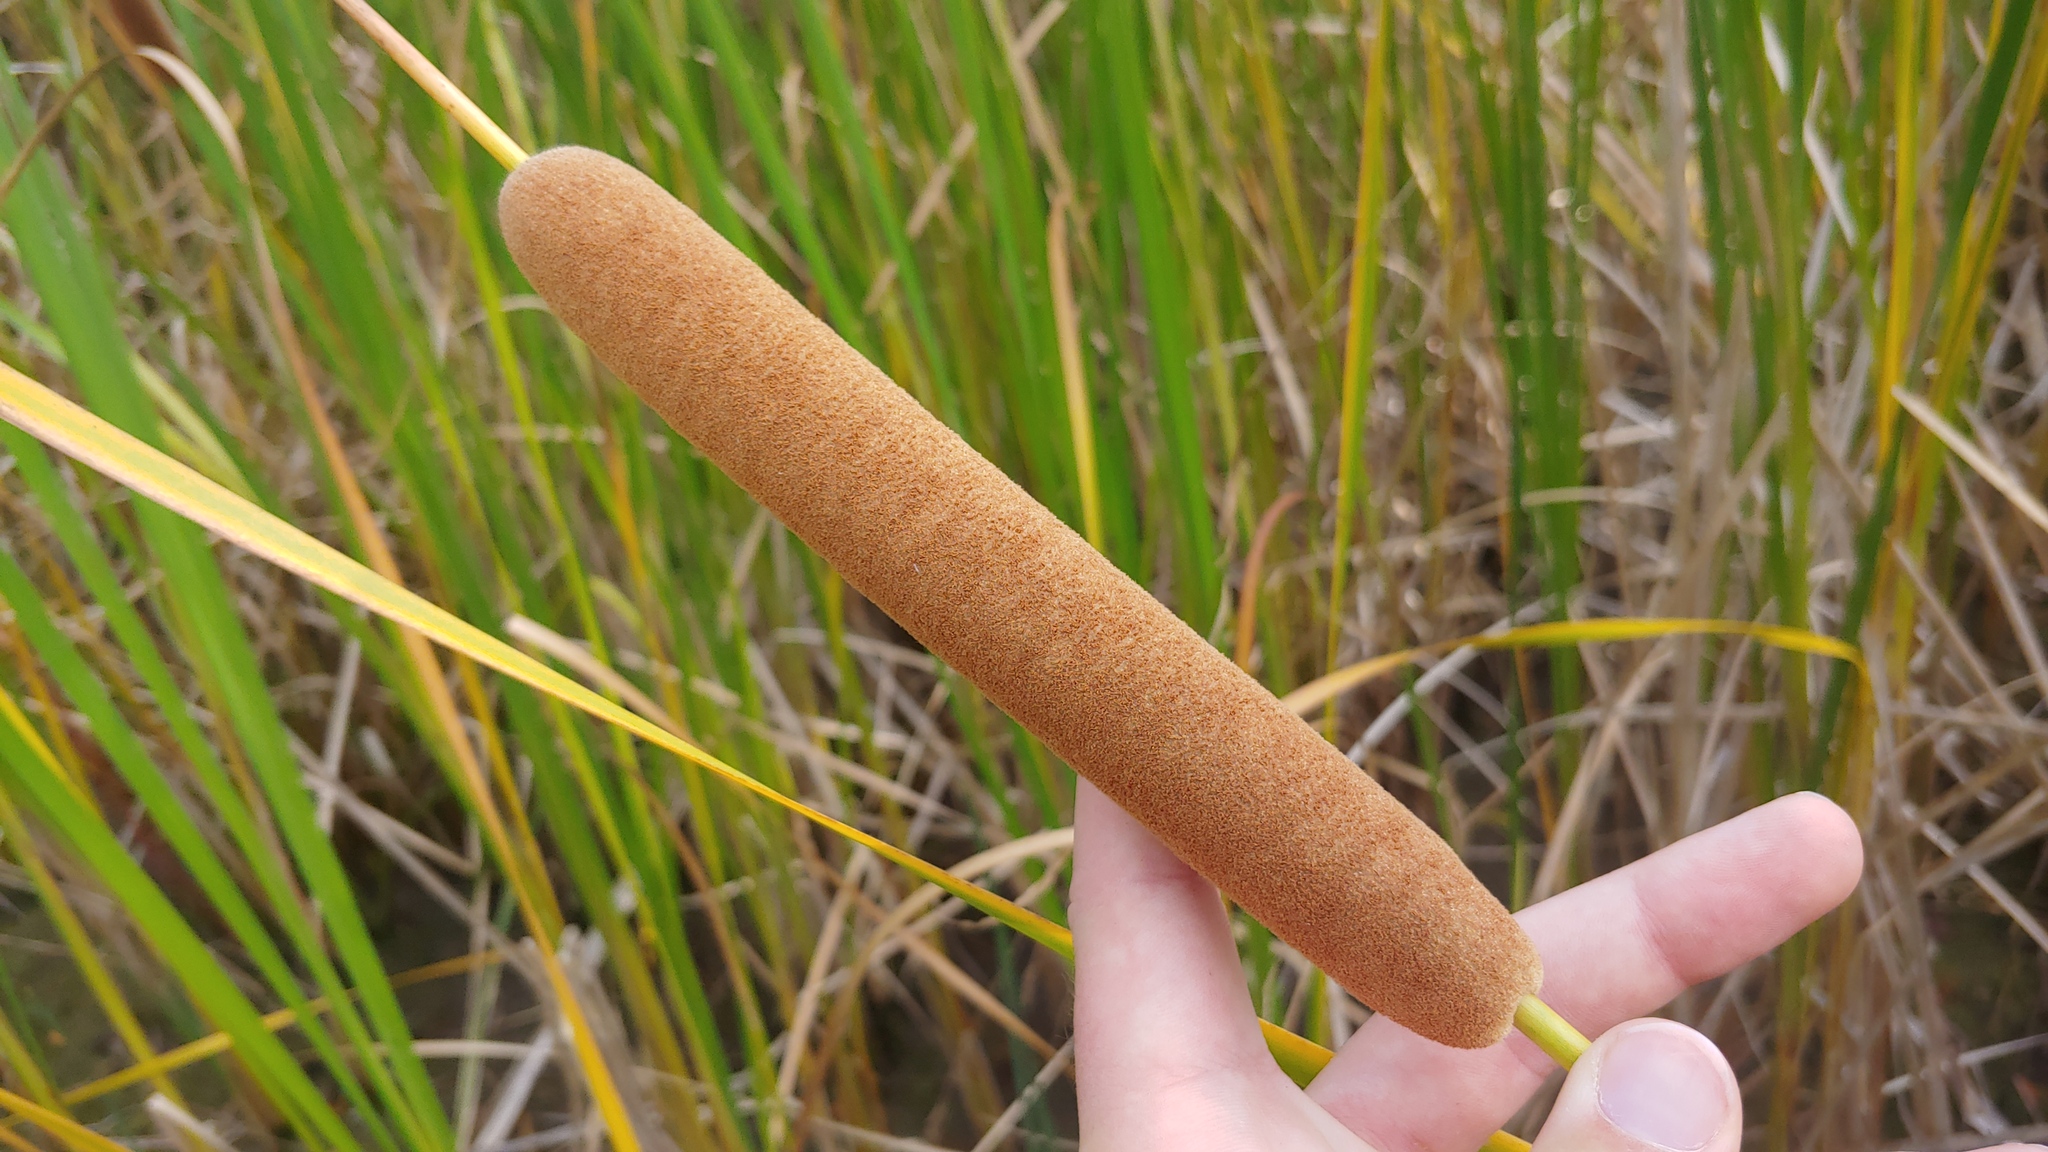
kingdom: Plantae
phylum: Tracheophyta
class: Liliopsida
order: Poales
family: Typhaceae
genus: Typha
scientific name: Typha glauca
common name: Blue cattail
